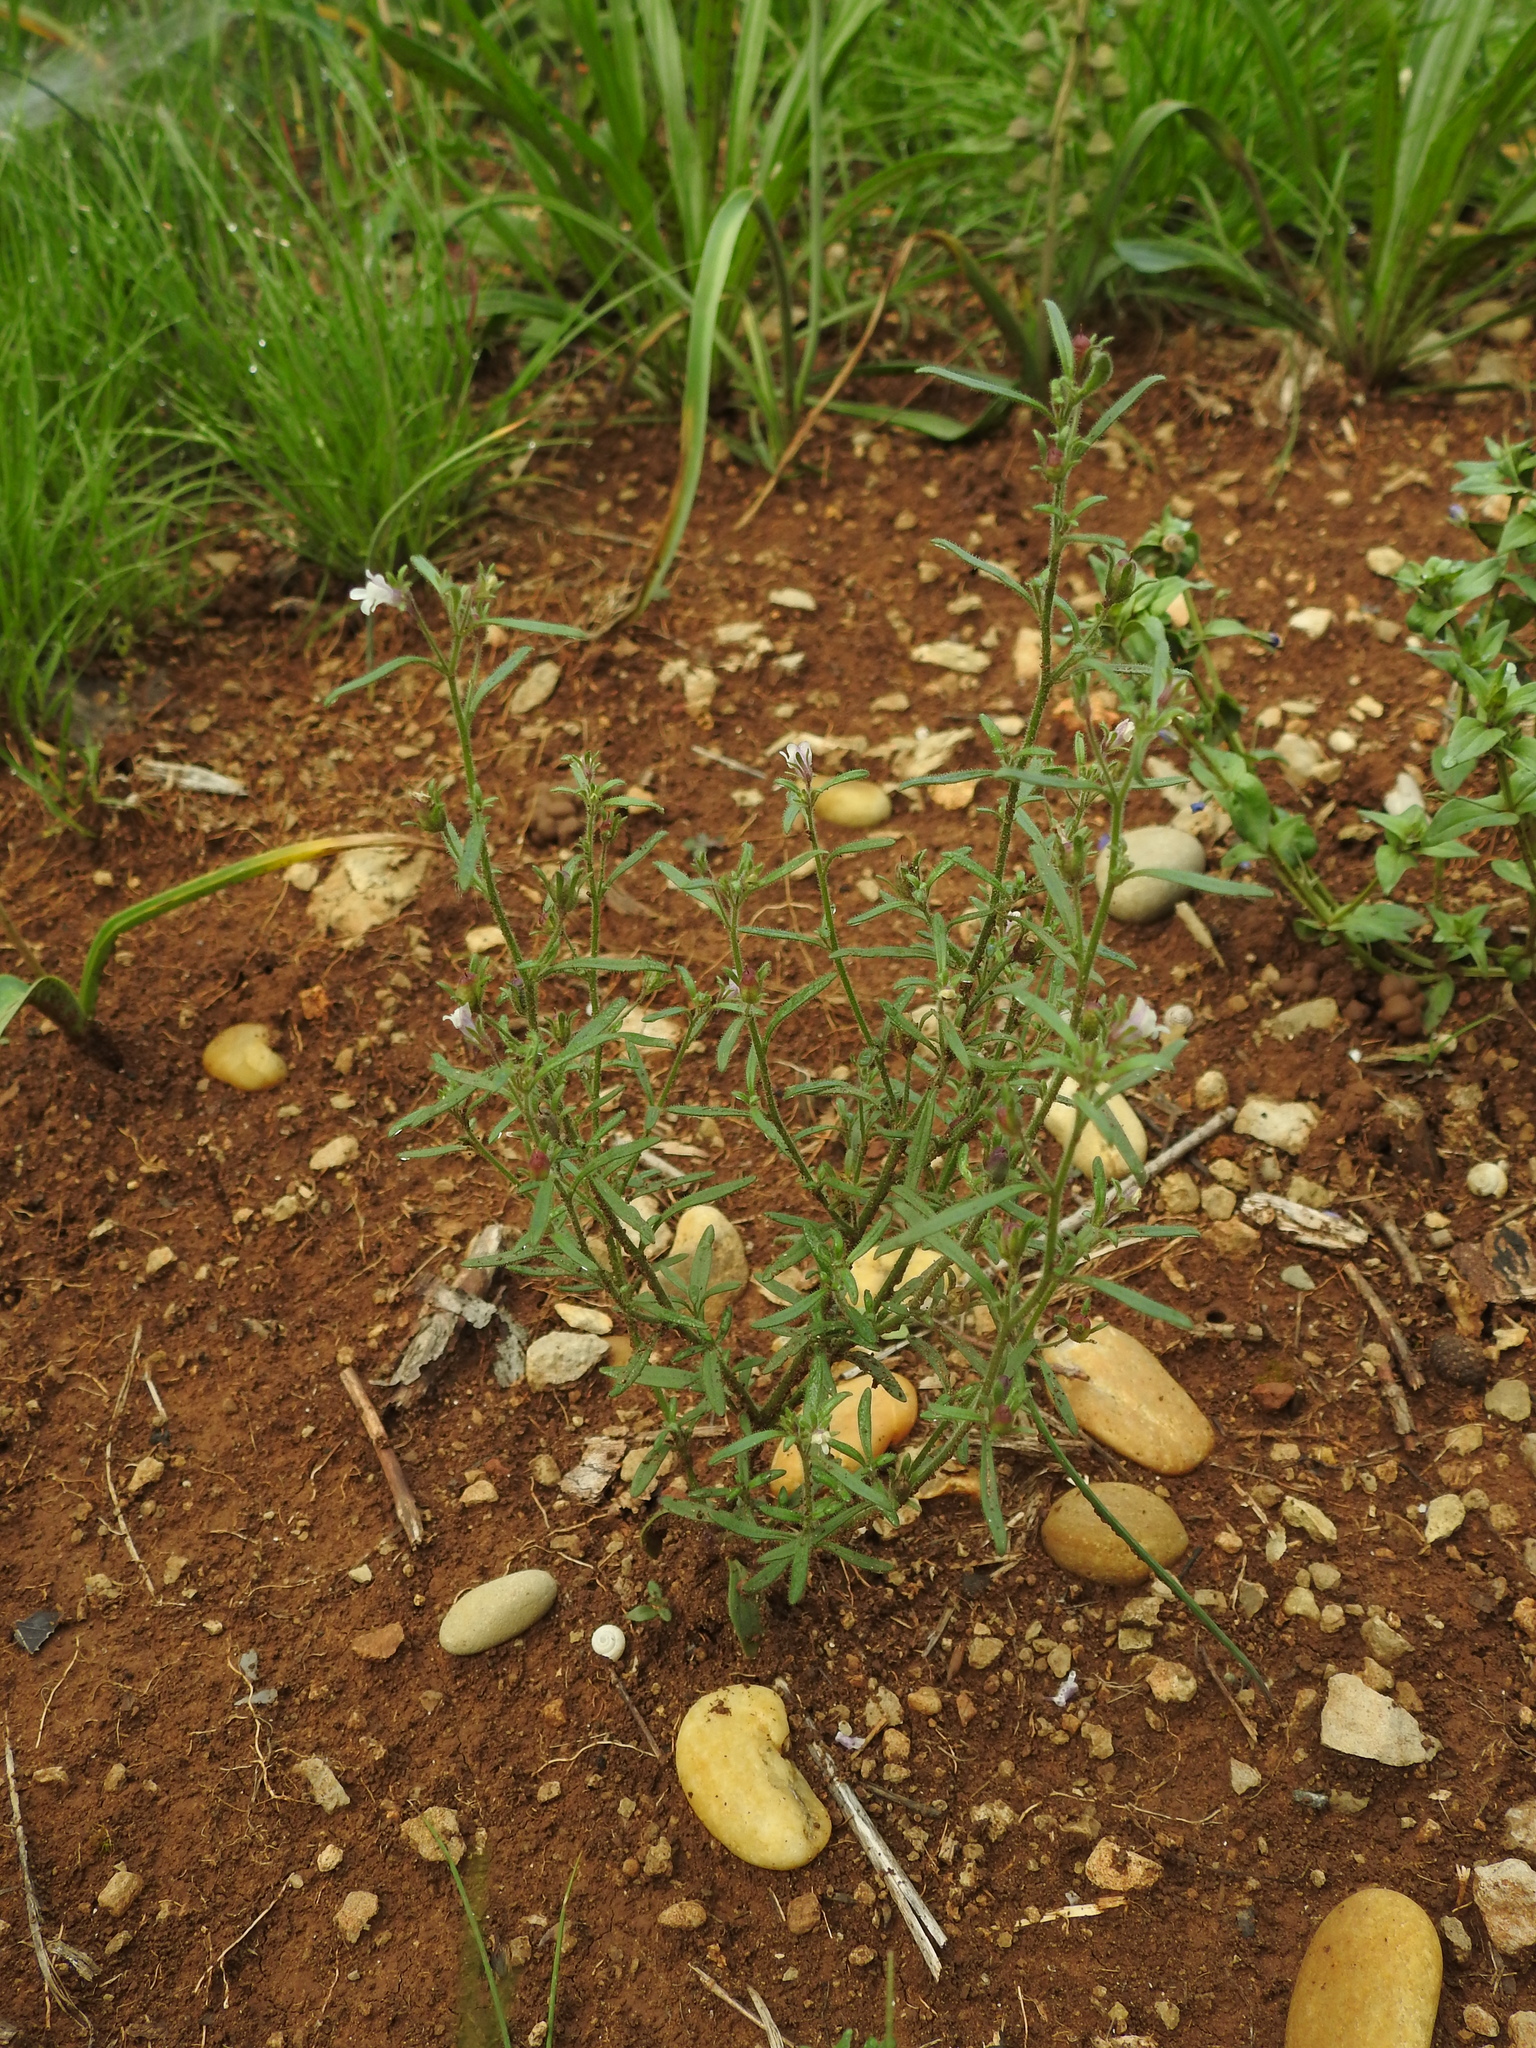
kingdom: Plantae
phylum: Tracheophyta
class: Magnoliopsida
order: Lamiales
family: Plantaginaceae
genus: Chaenorhinum
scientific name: Chaenorhinum minus
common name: Dwarf snapdragon
